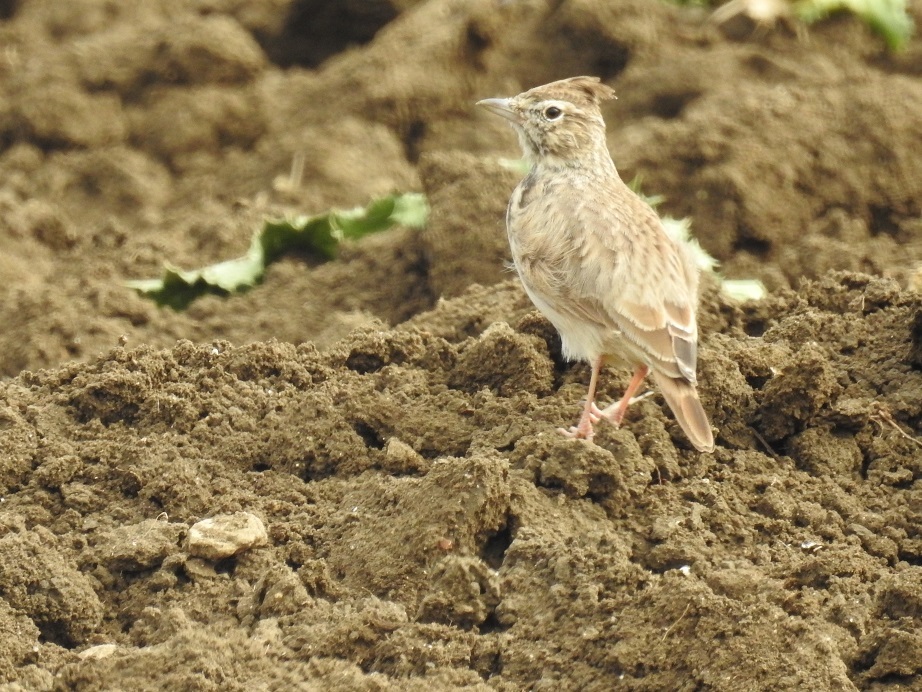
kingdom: Animalia
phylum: Chordata
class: Aves
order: Passeriformes
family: Alaudidae
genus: Galerida
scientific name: Galerida theklae
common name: Thekla lark
